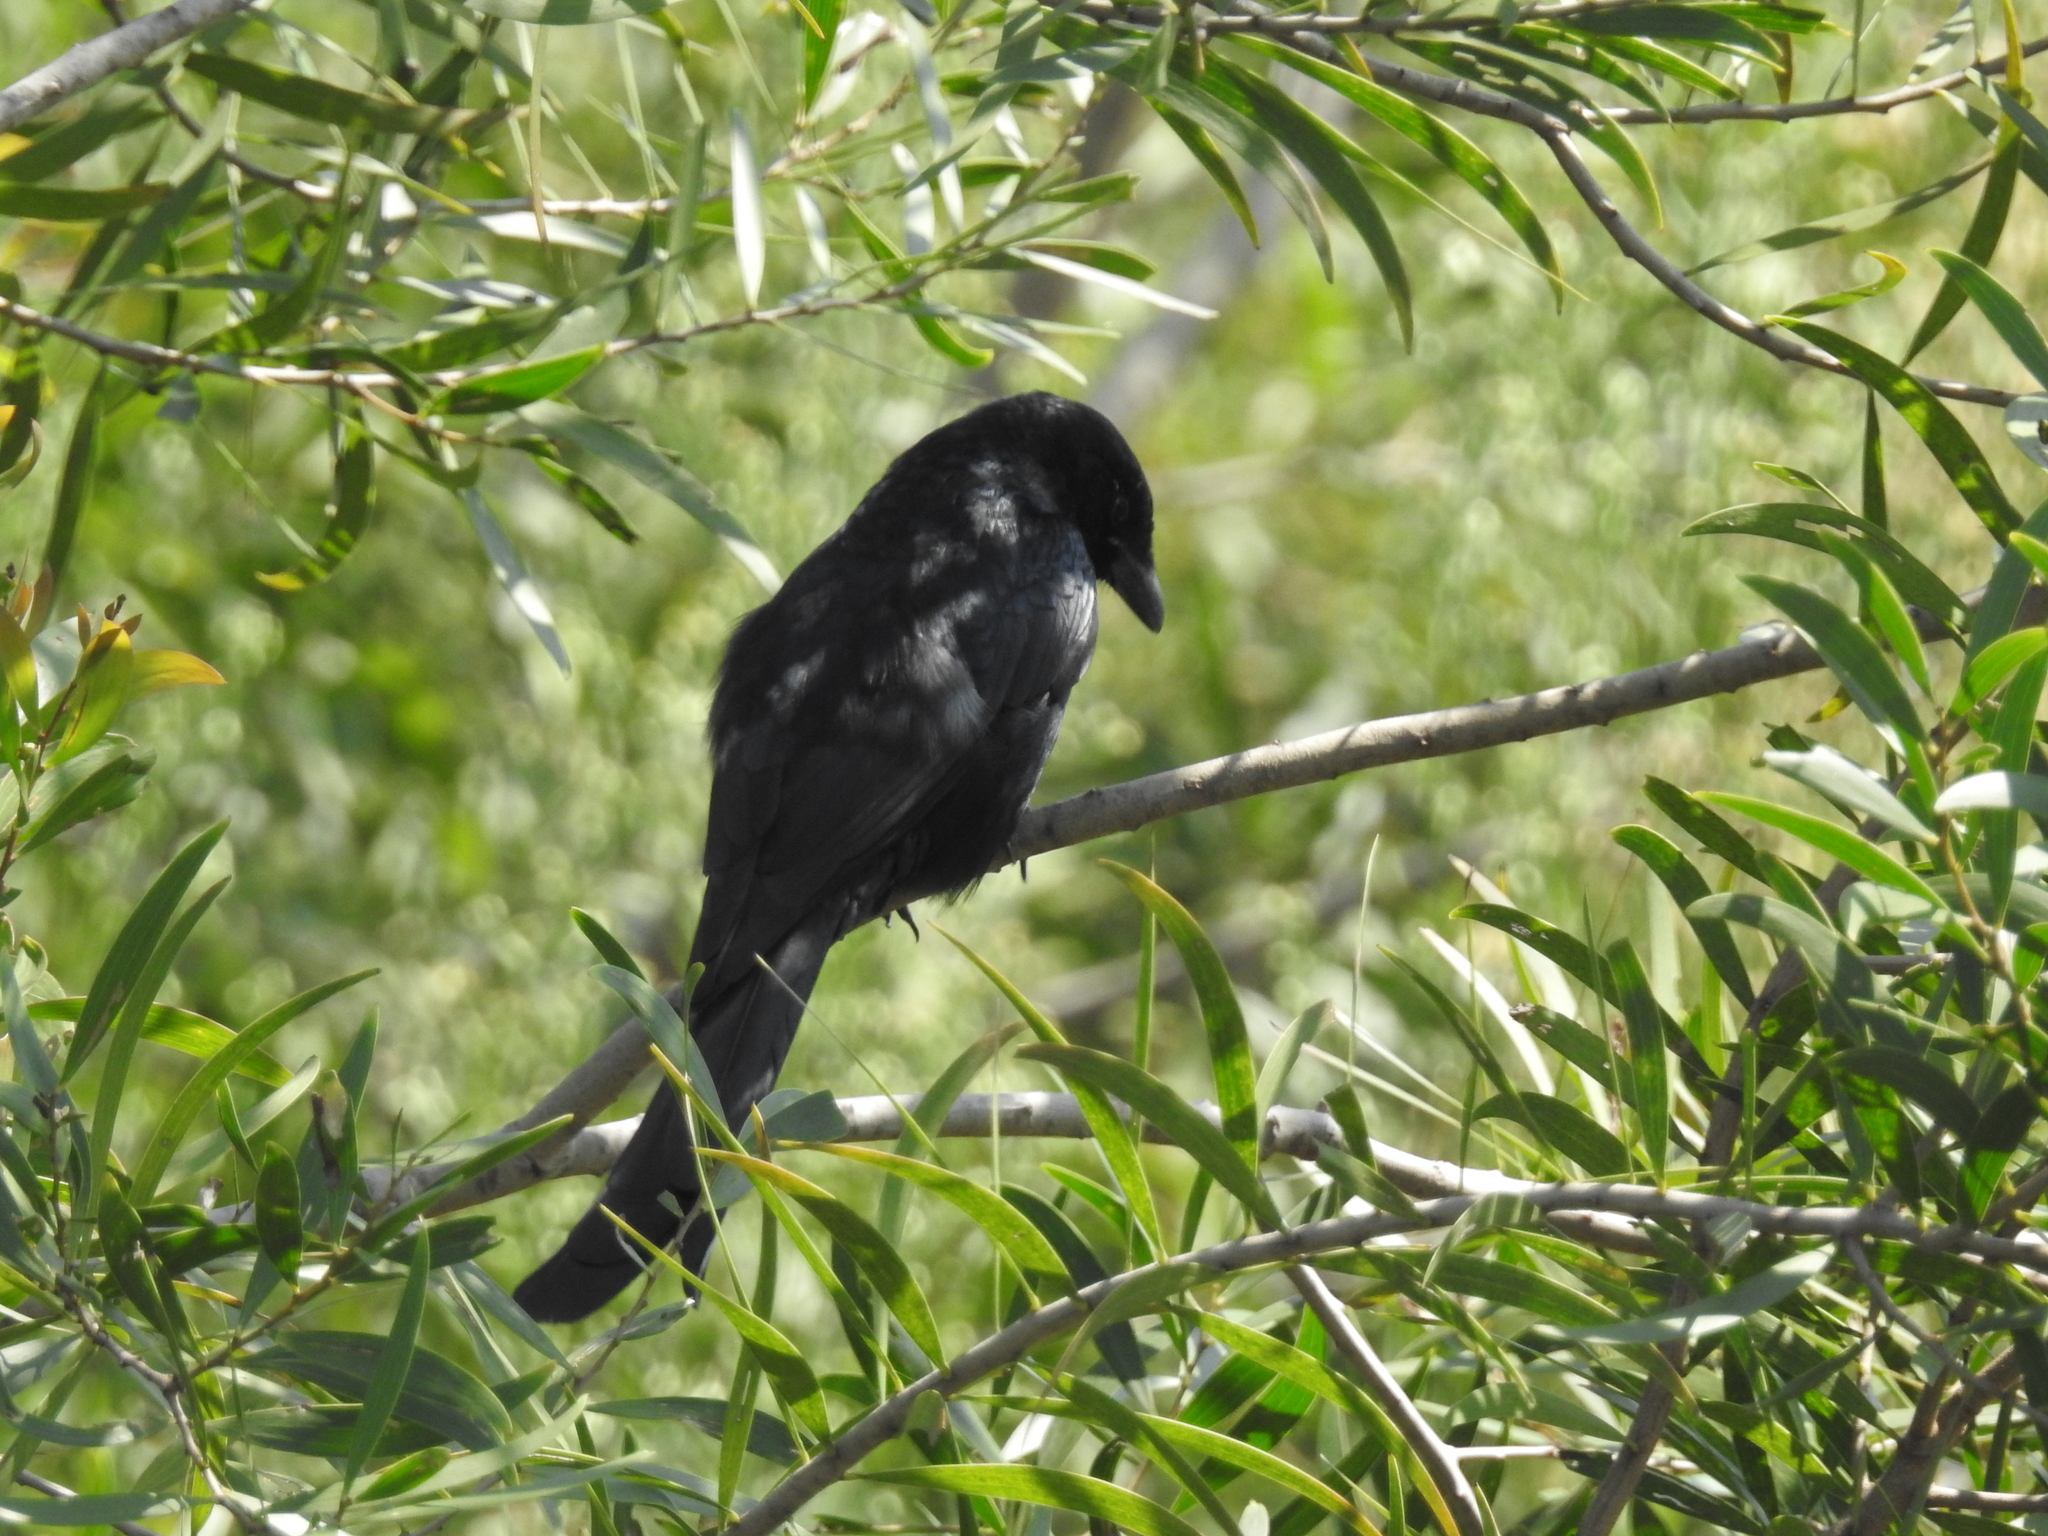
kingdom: Animalia
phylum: Chordata
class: Aves
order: Passeriformes
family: Dicruridae
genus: Dicrurus
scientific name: Dicrurus macrocercus
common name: Black drongo
